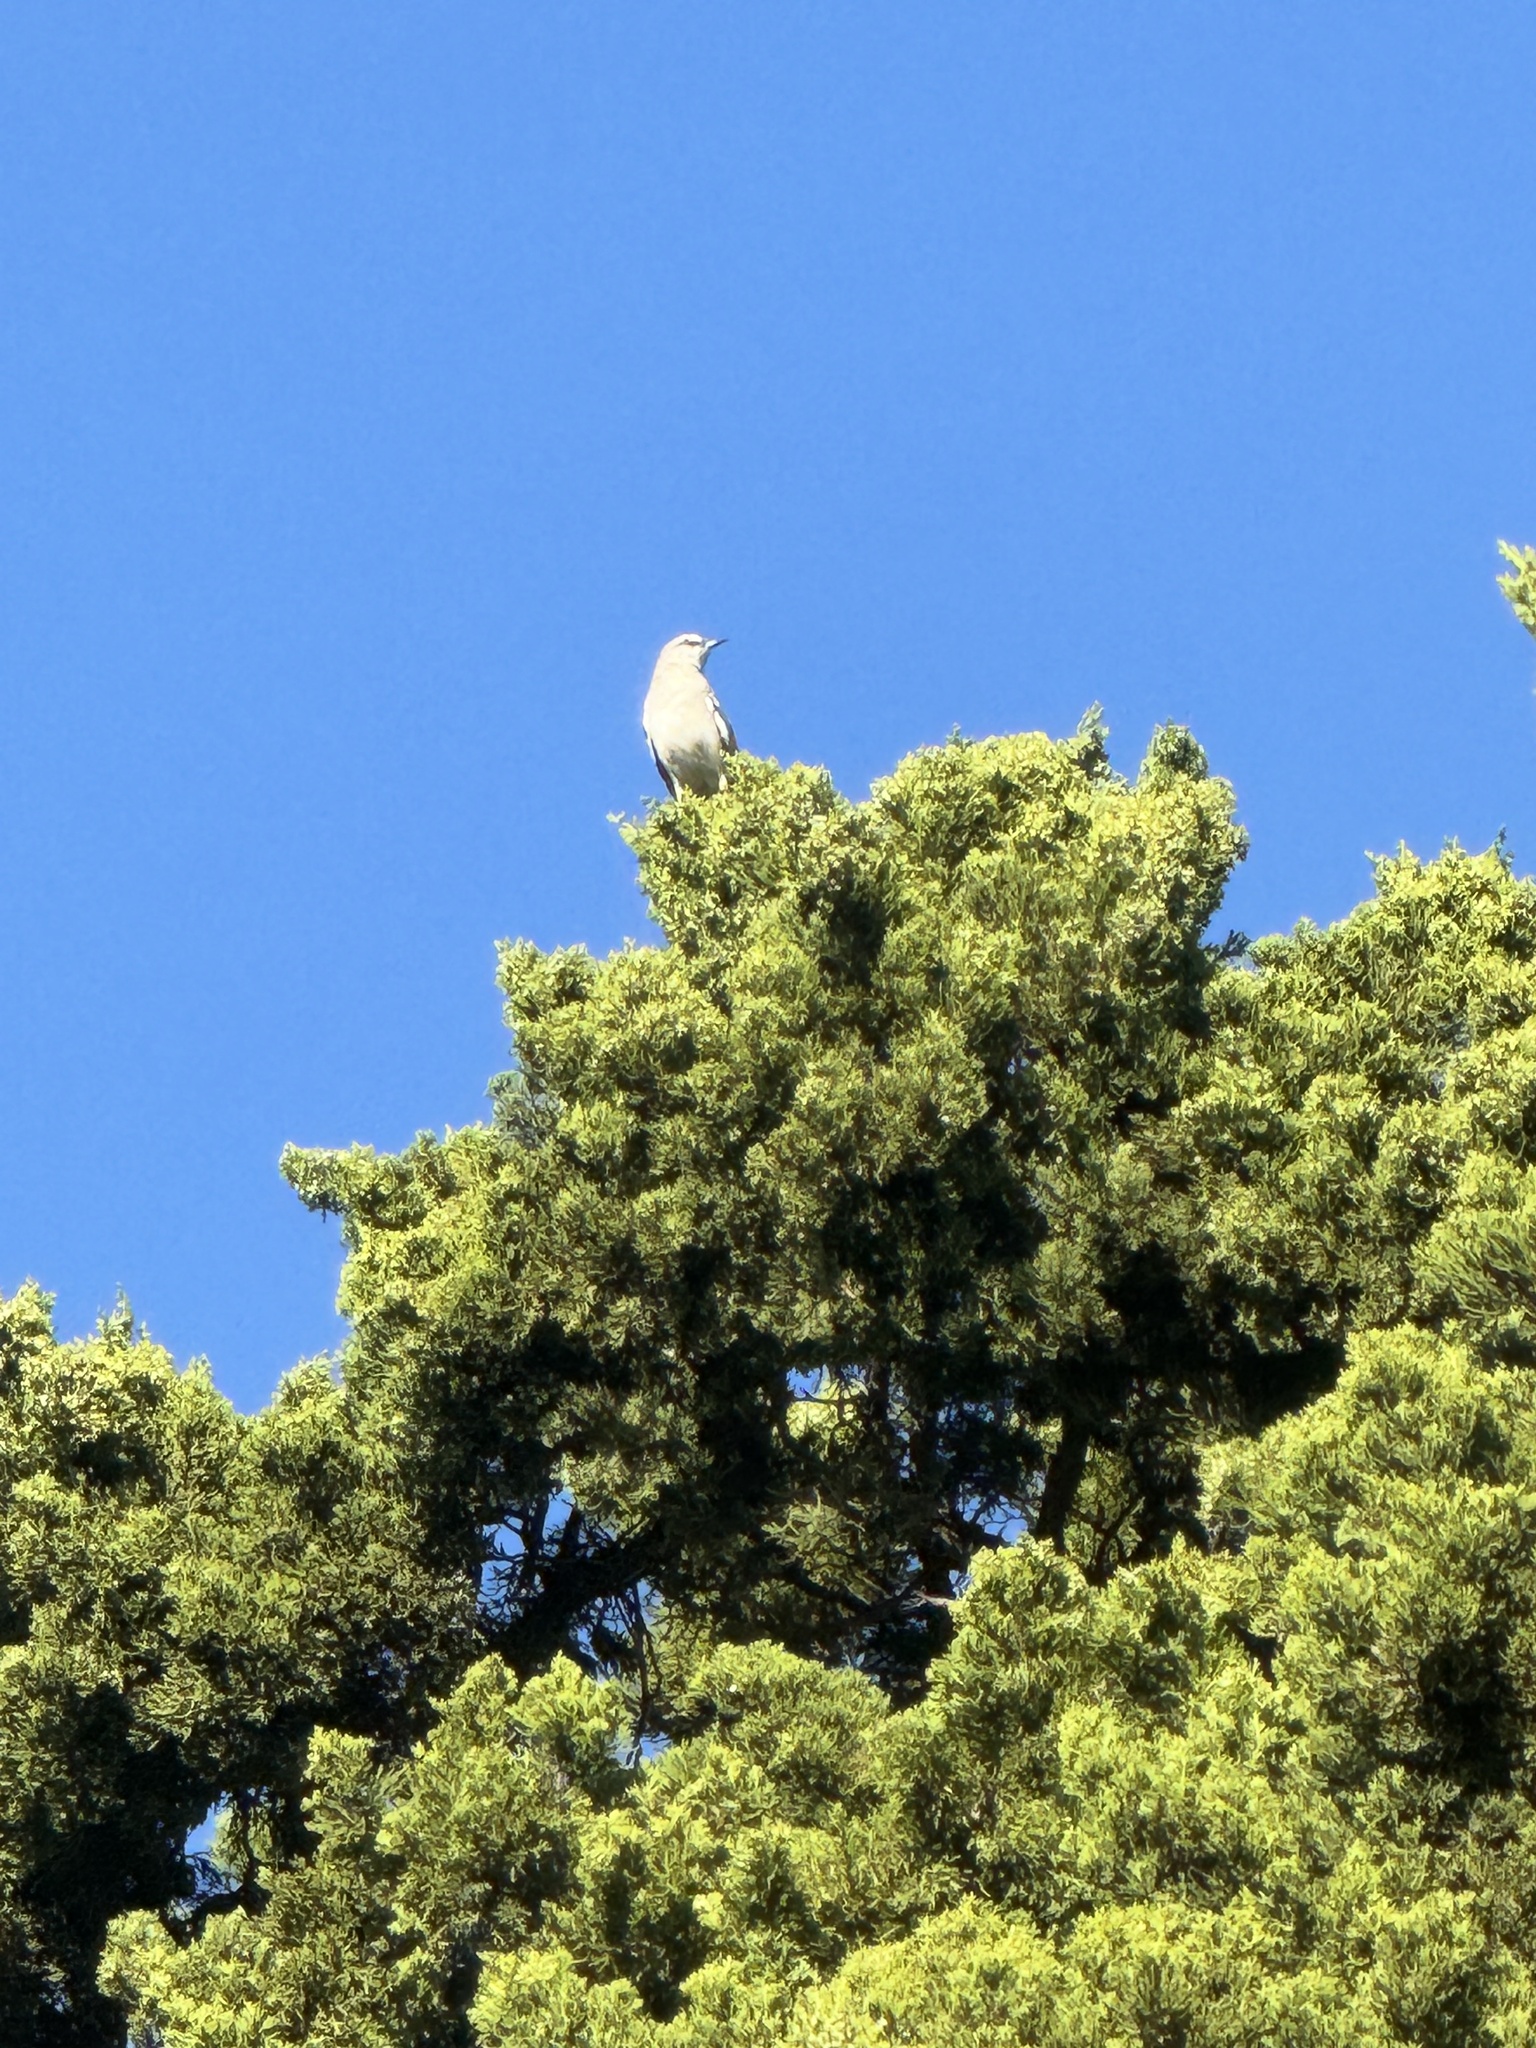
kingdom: Animalia
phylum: Chordata
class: Aves
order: Passeriformes
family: Mimidae
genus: Mimus
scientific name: Mimus polyglottos
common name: Northern mockingbird
